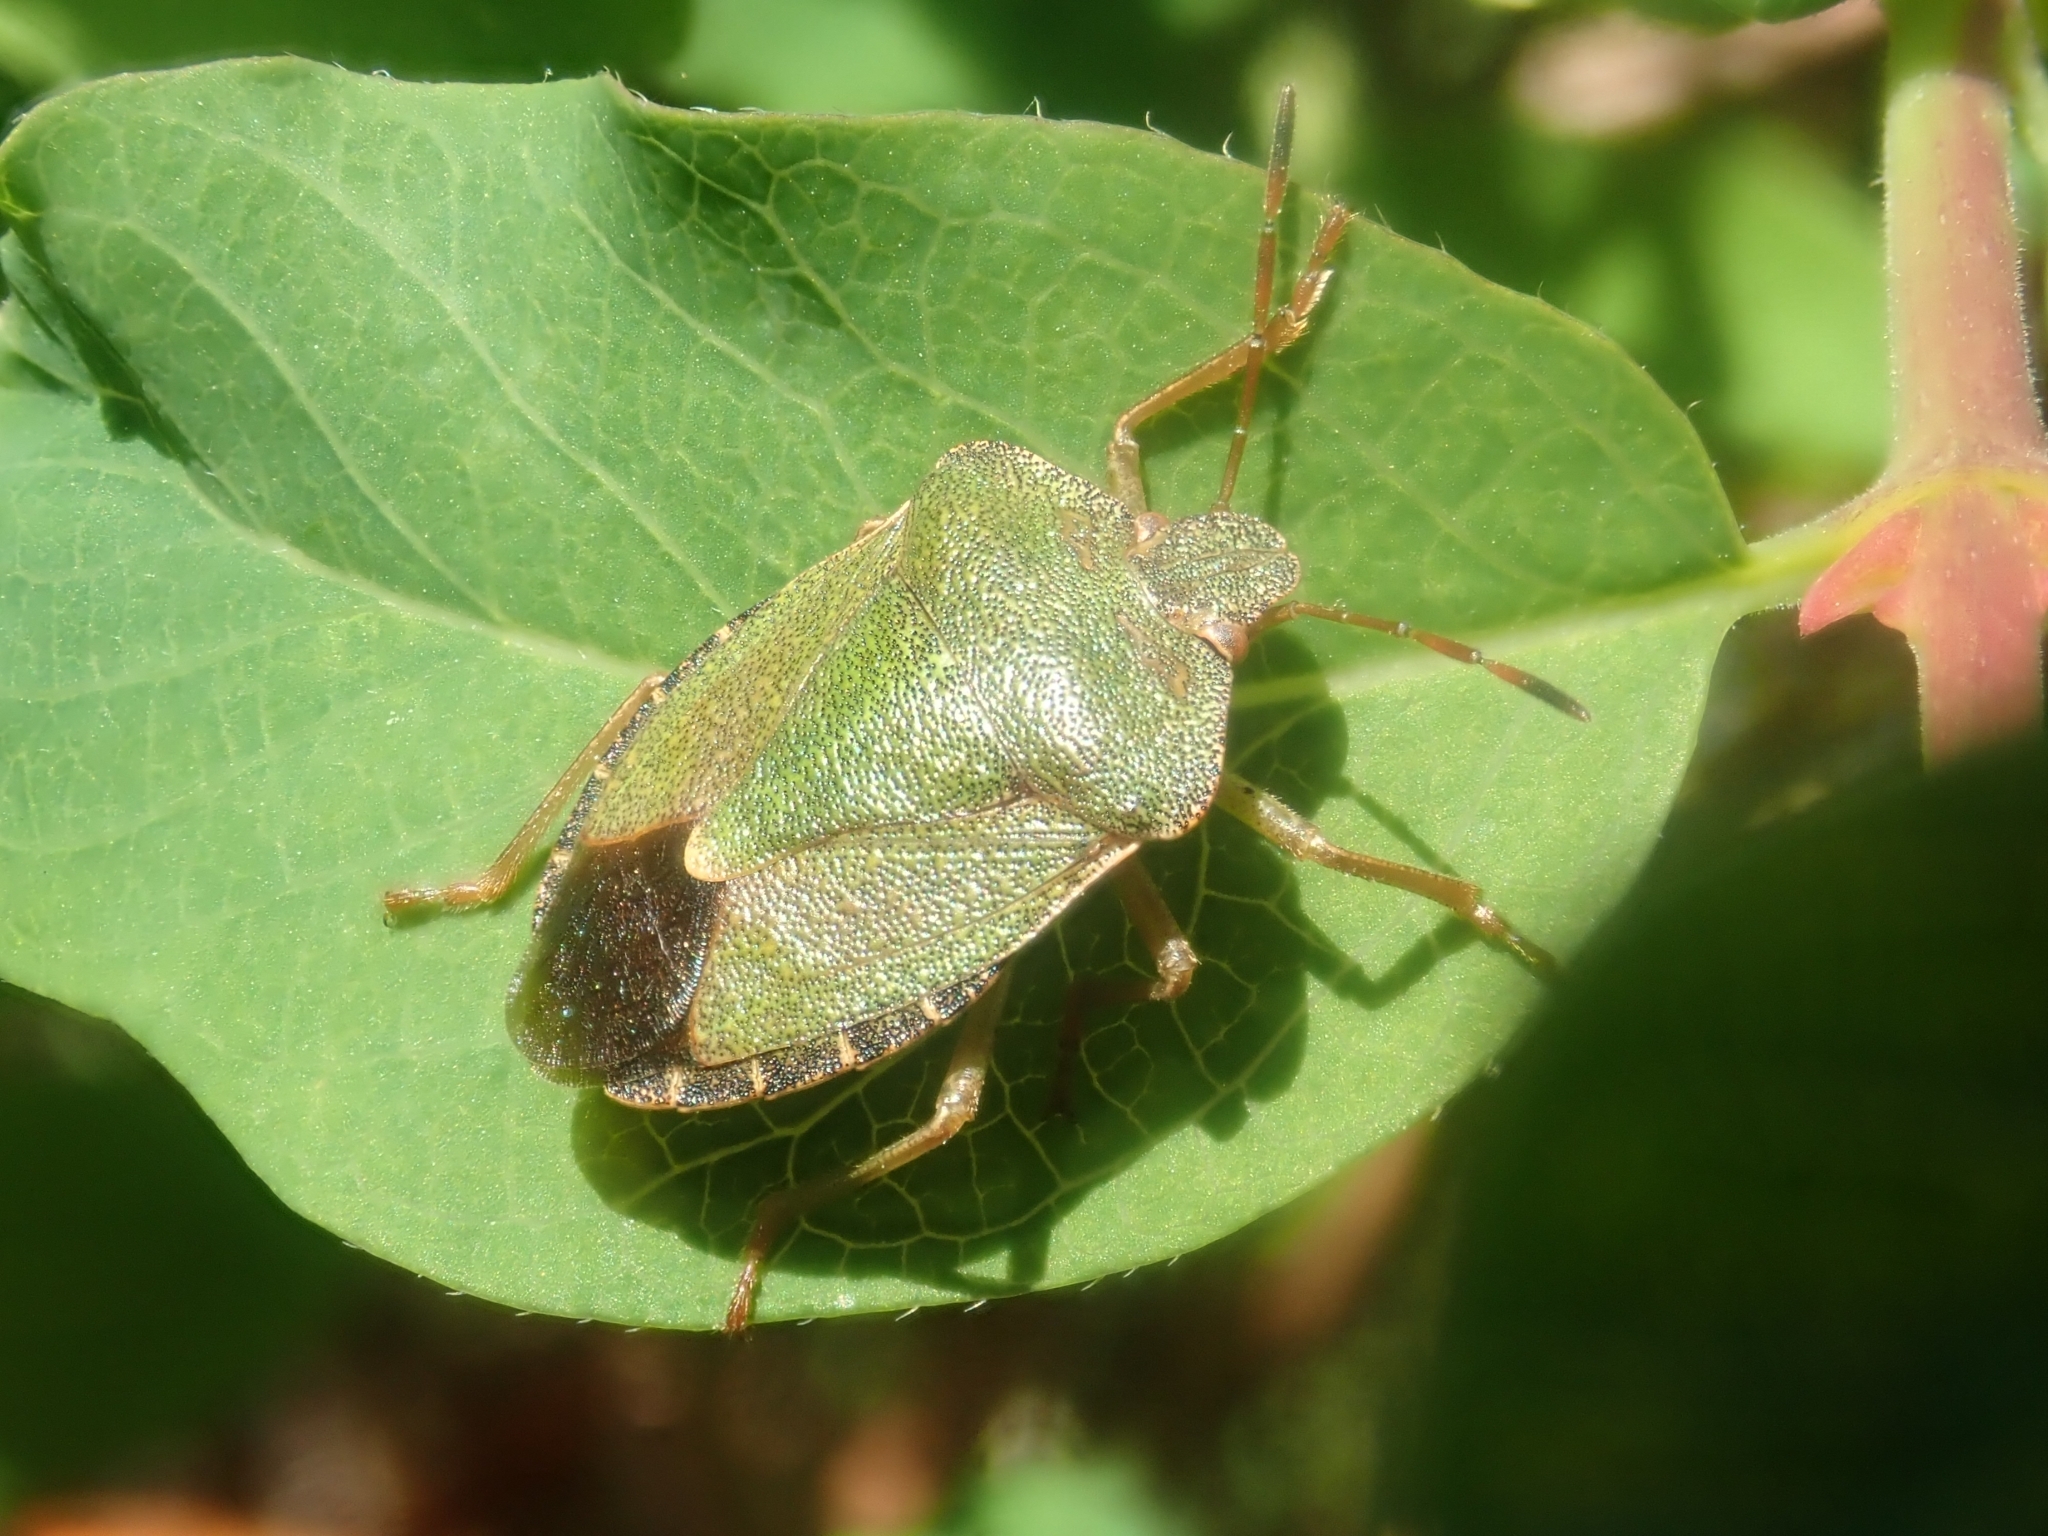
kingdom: Animalia
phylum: Arthropoda
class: Insecta
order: Hemiptera
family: Pentatomidae
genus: Palomena
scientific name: Palomena prasina
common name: Green shieldbug
